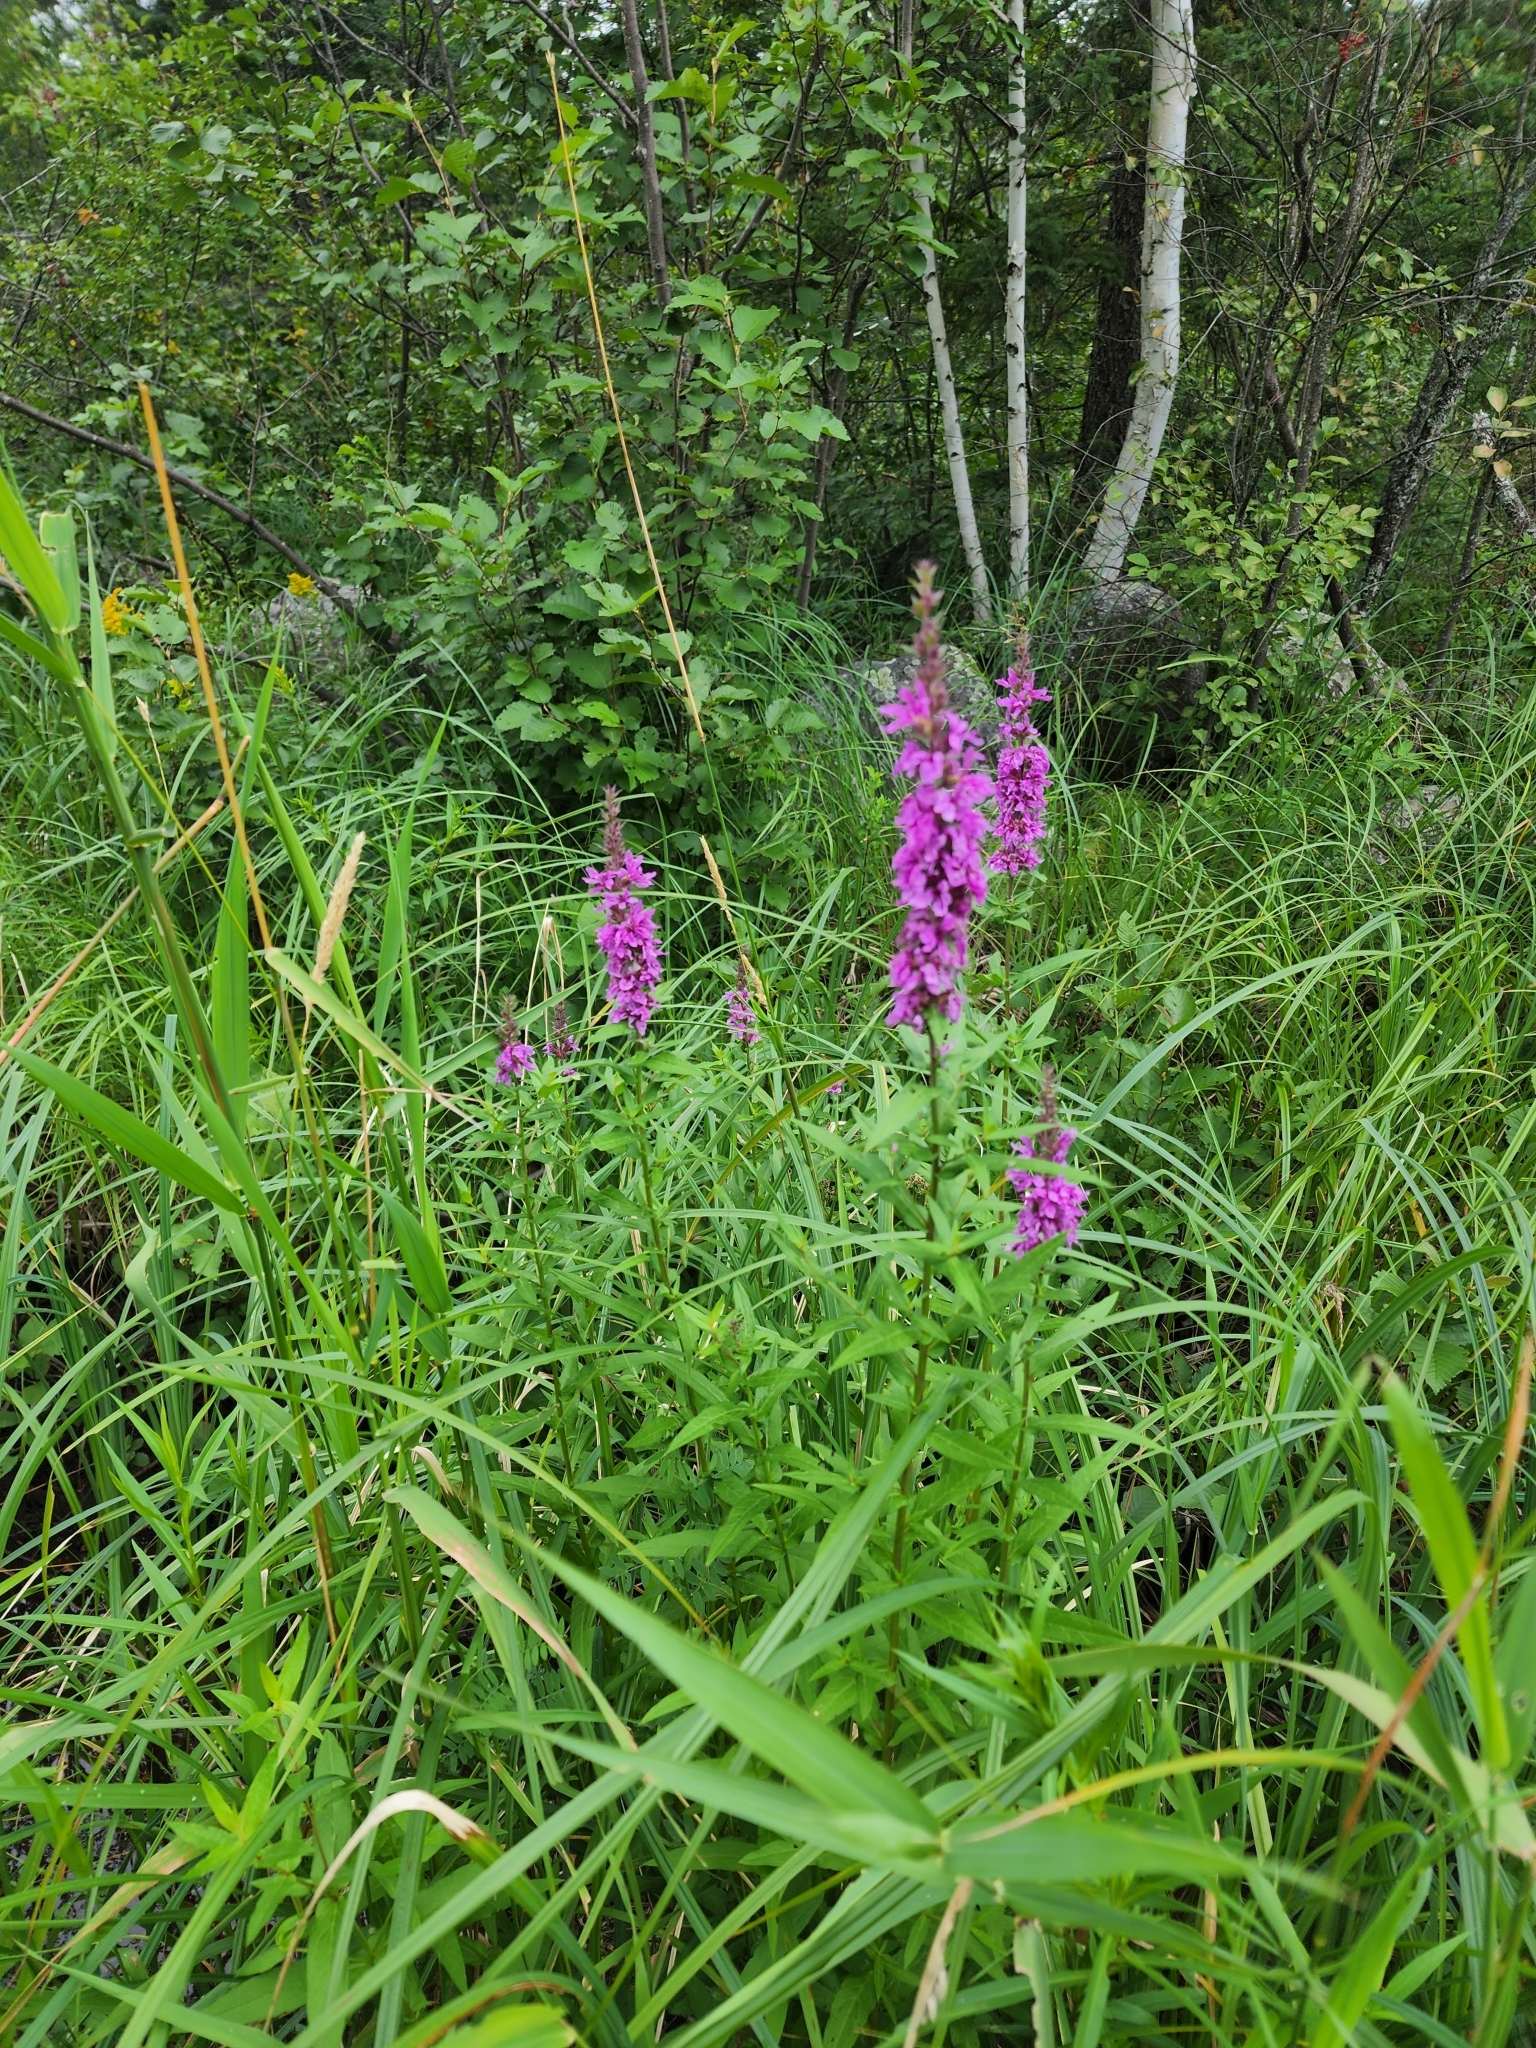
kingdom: Plantae
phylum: Tracheophyta
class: Magnoliopsida
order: Myrtales
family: Lythraceae
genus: Lythrum
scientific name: Lythrum salicaria
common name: Purple loosestrife
